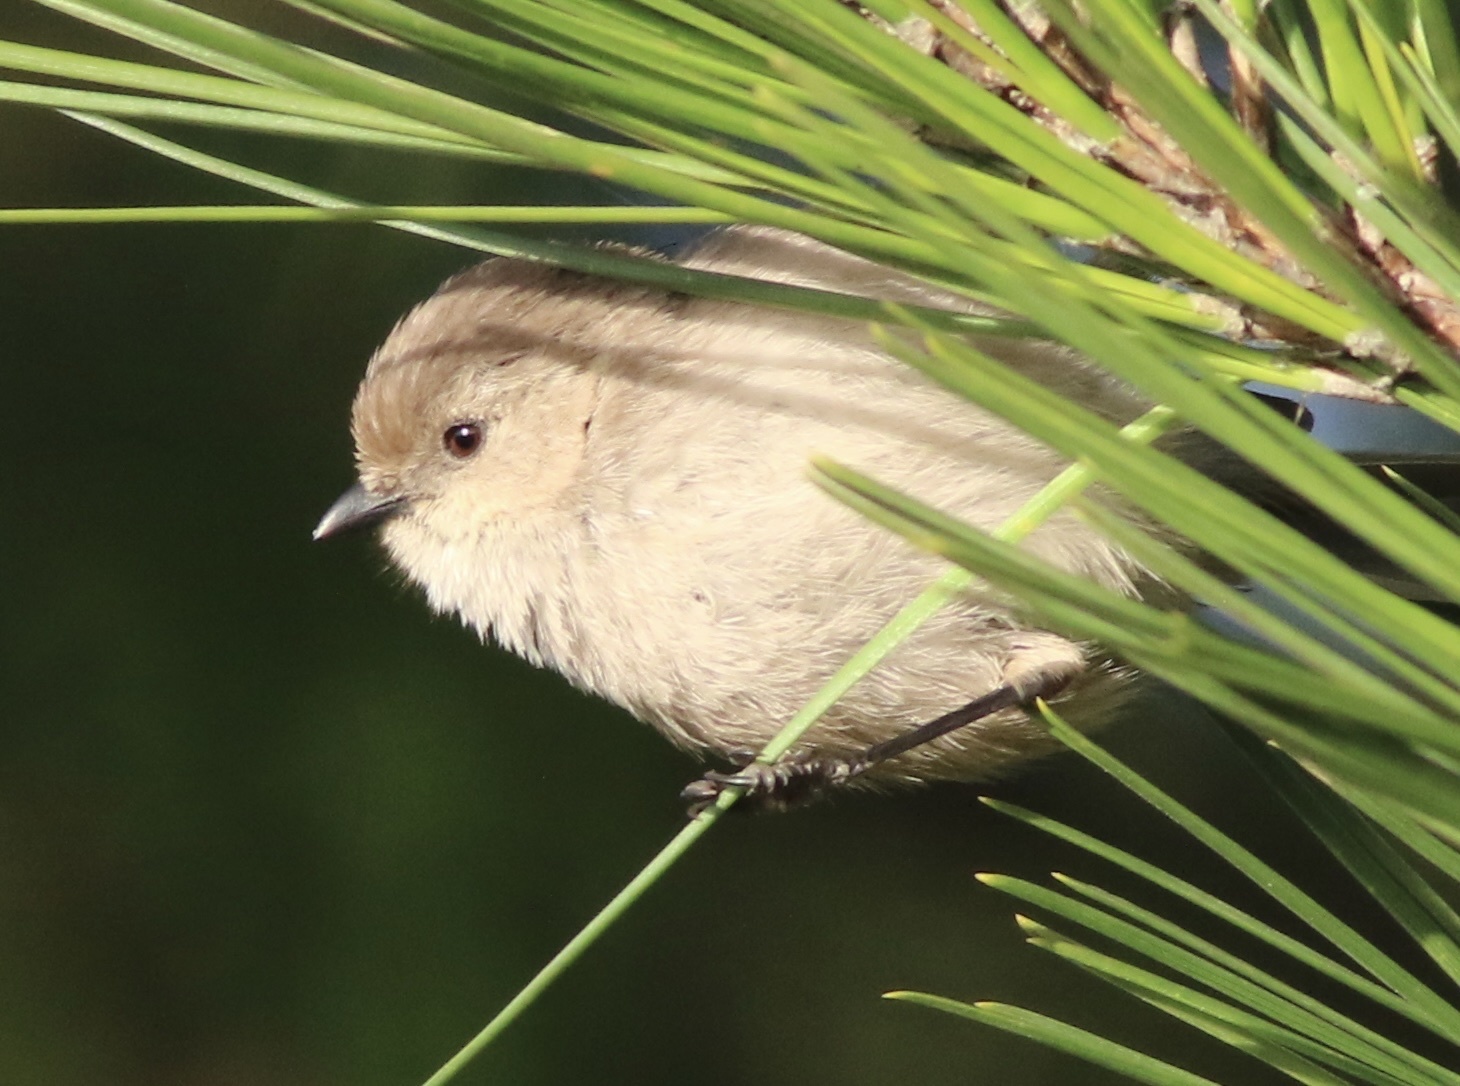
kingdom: Animalia
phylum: Chordata
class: Aves
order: Passeriformes
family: Aegithalidae
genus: Psaltriparus
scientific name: Psaltriparus minimus
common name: American bushtit
